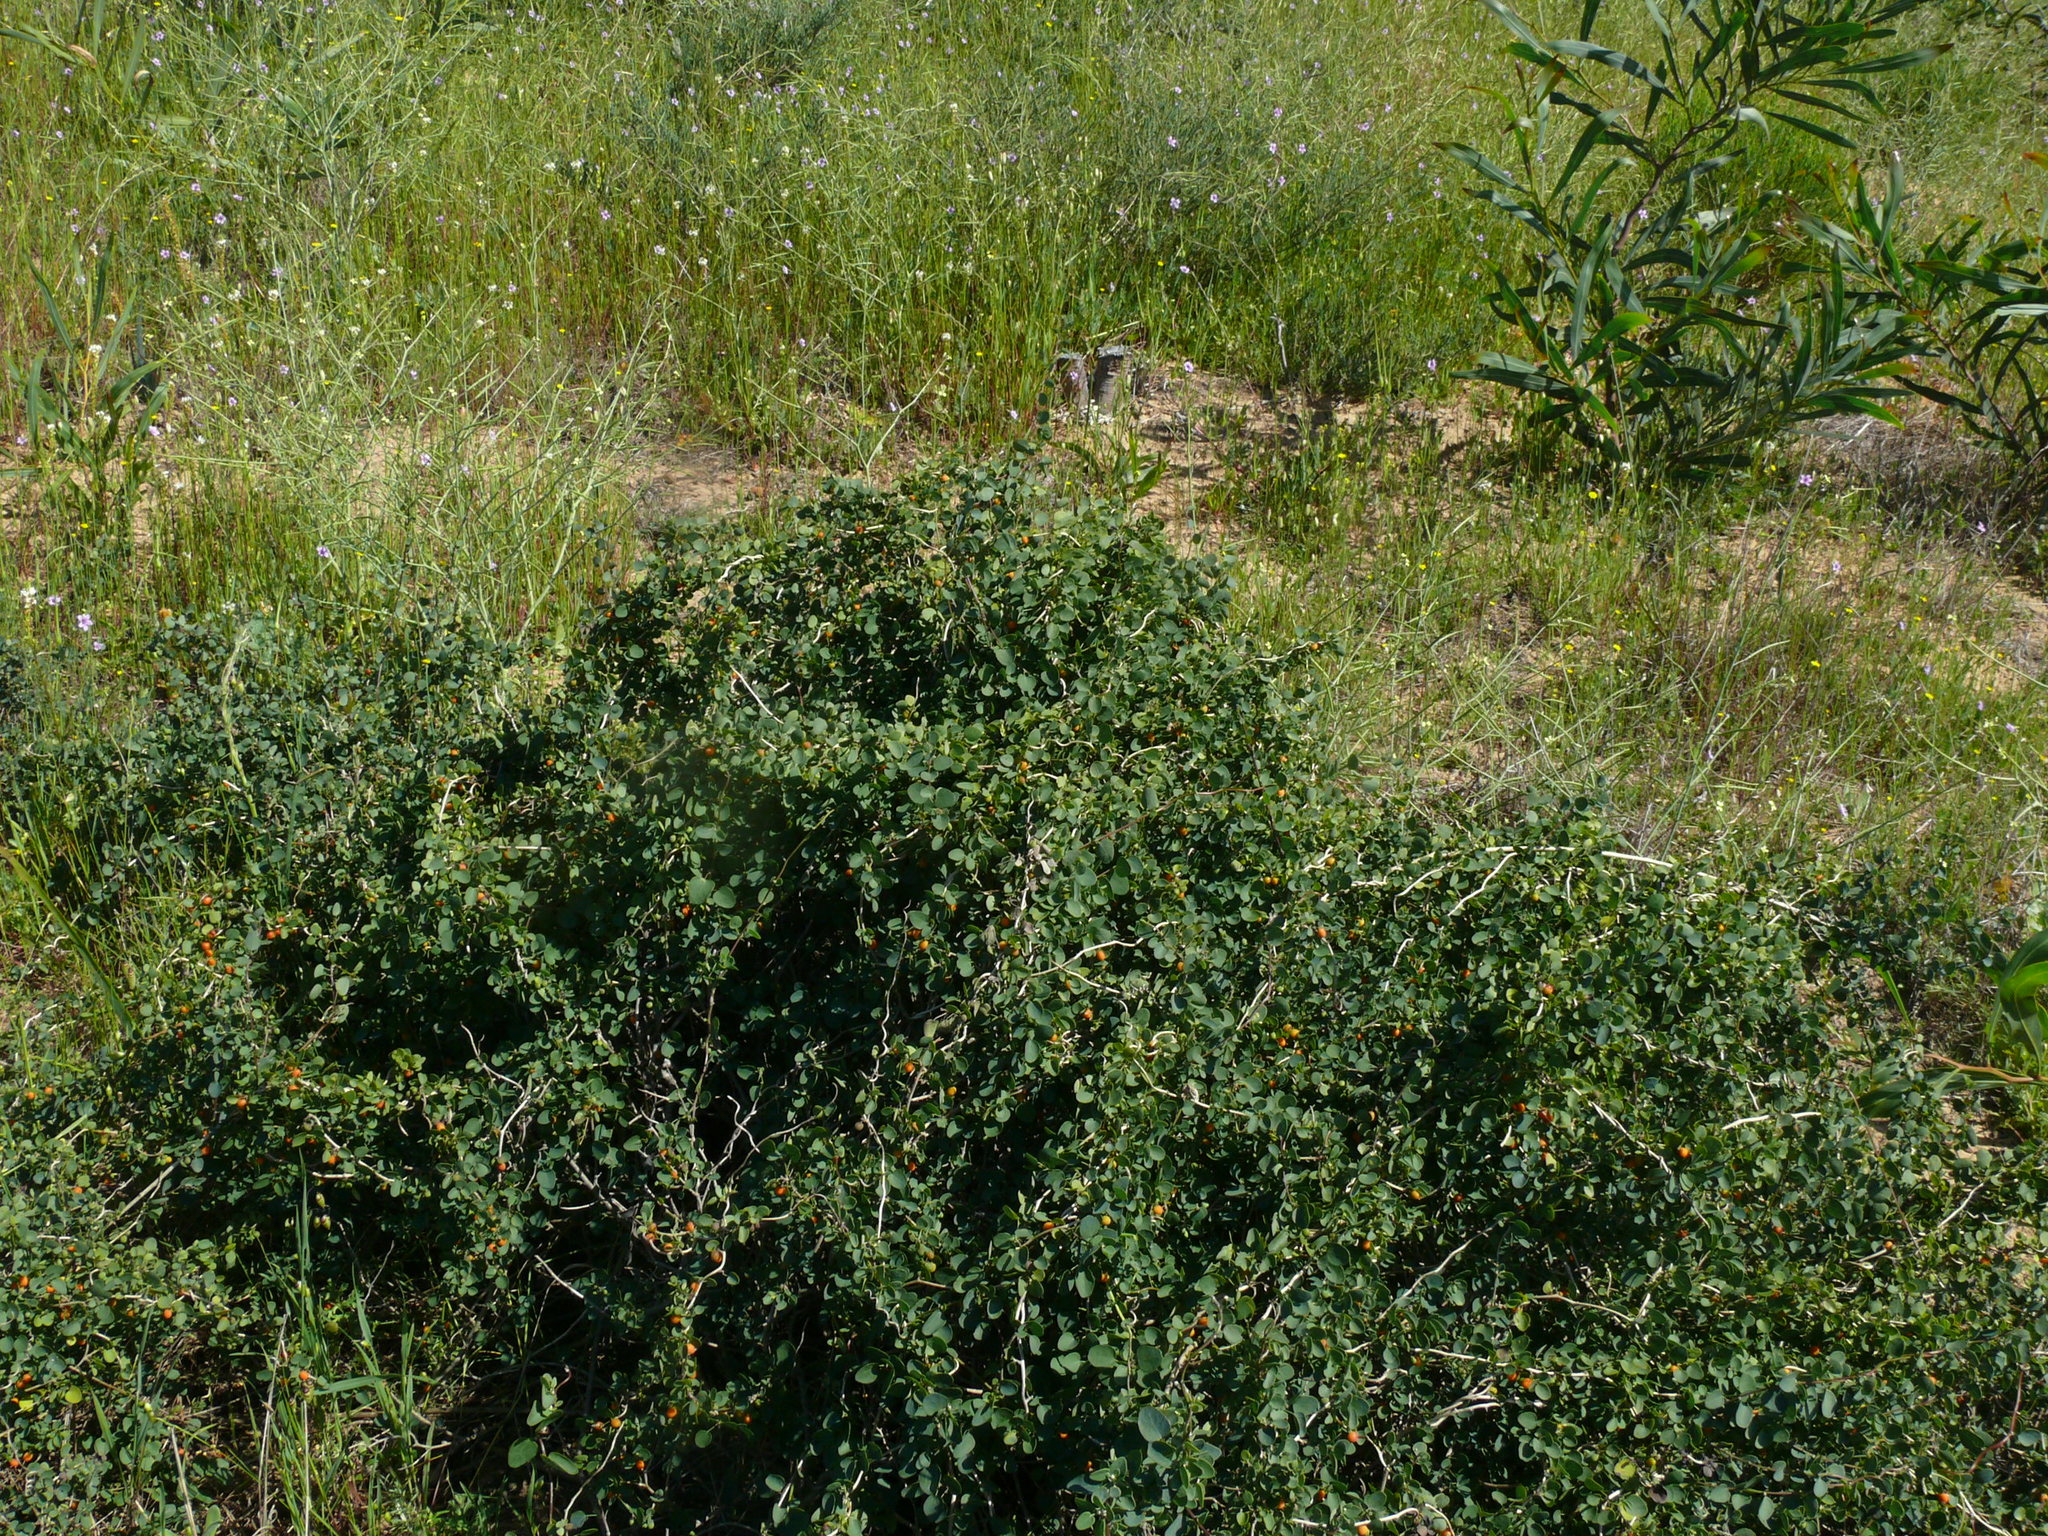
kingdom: Plantae
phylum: Tracheophyta
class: Magnoliopsida
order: Ranunculales
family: Menispermaceae
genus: Cissampelos
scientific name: Cissampelos capensis
